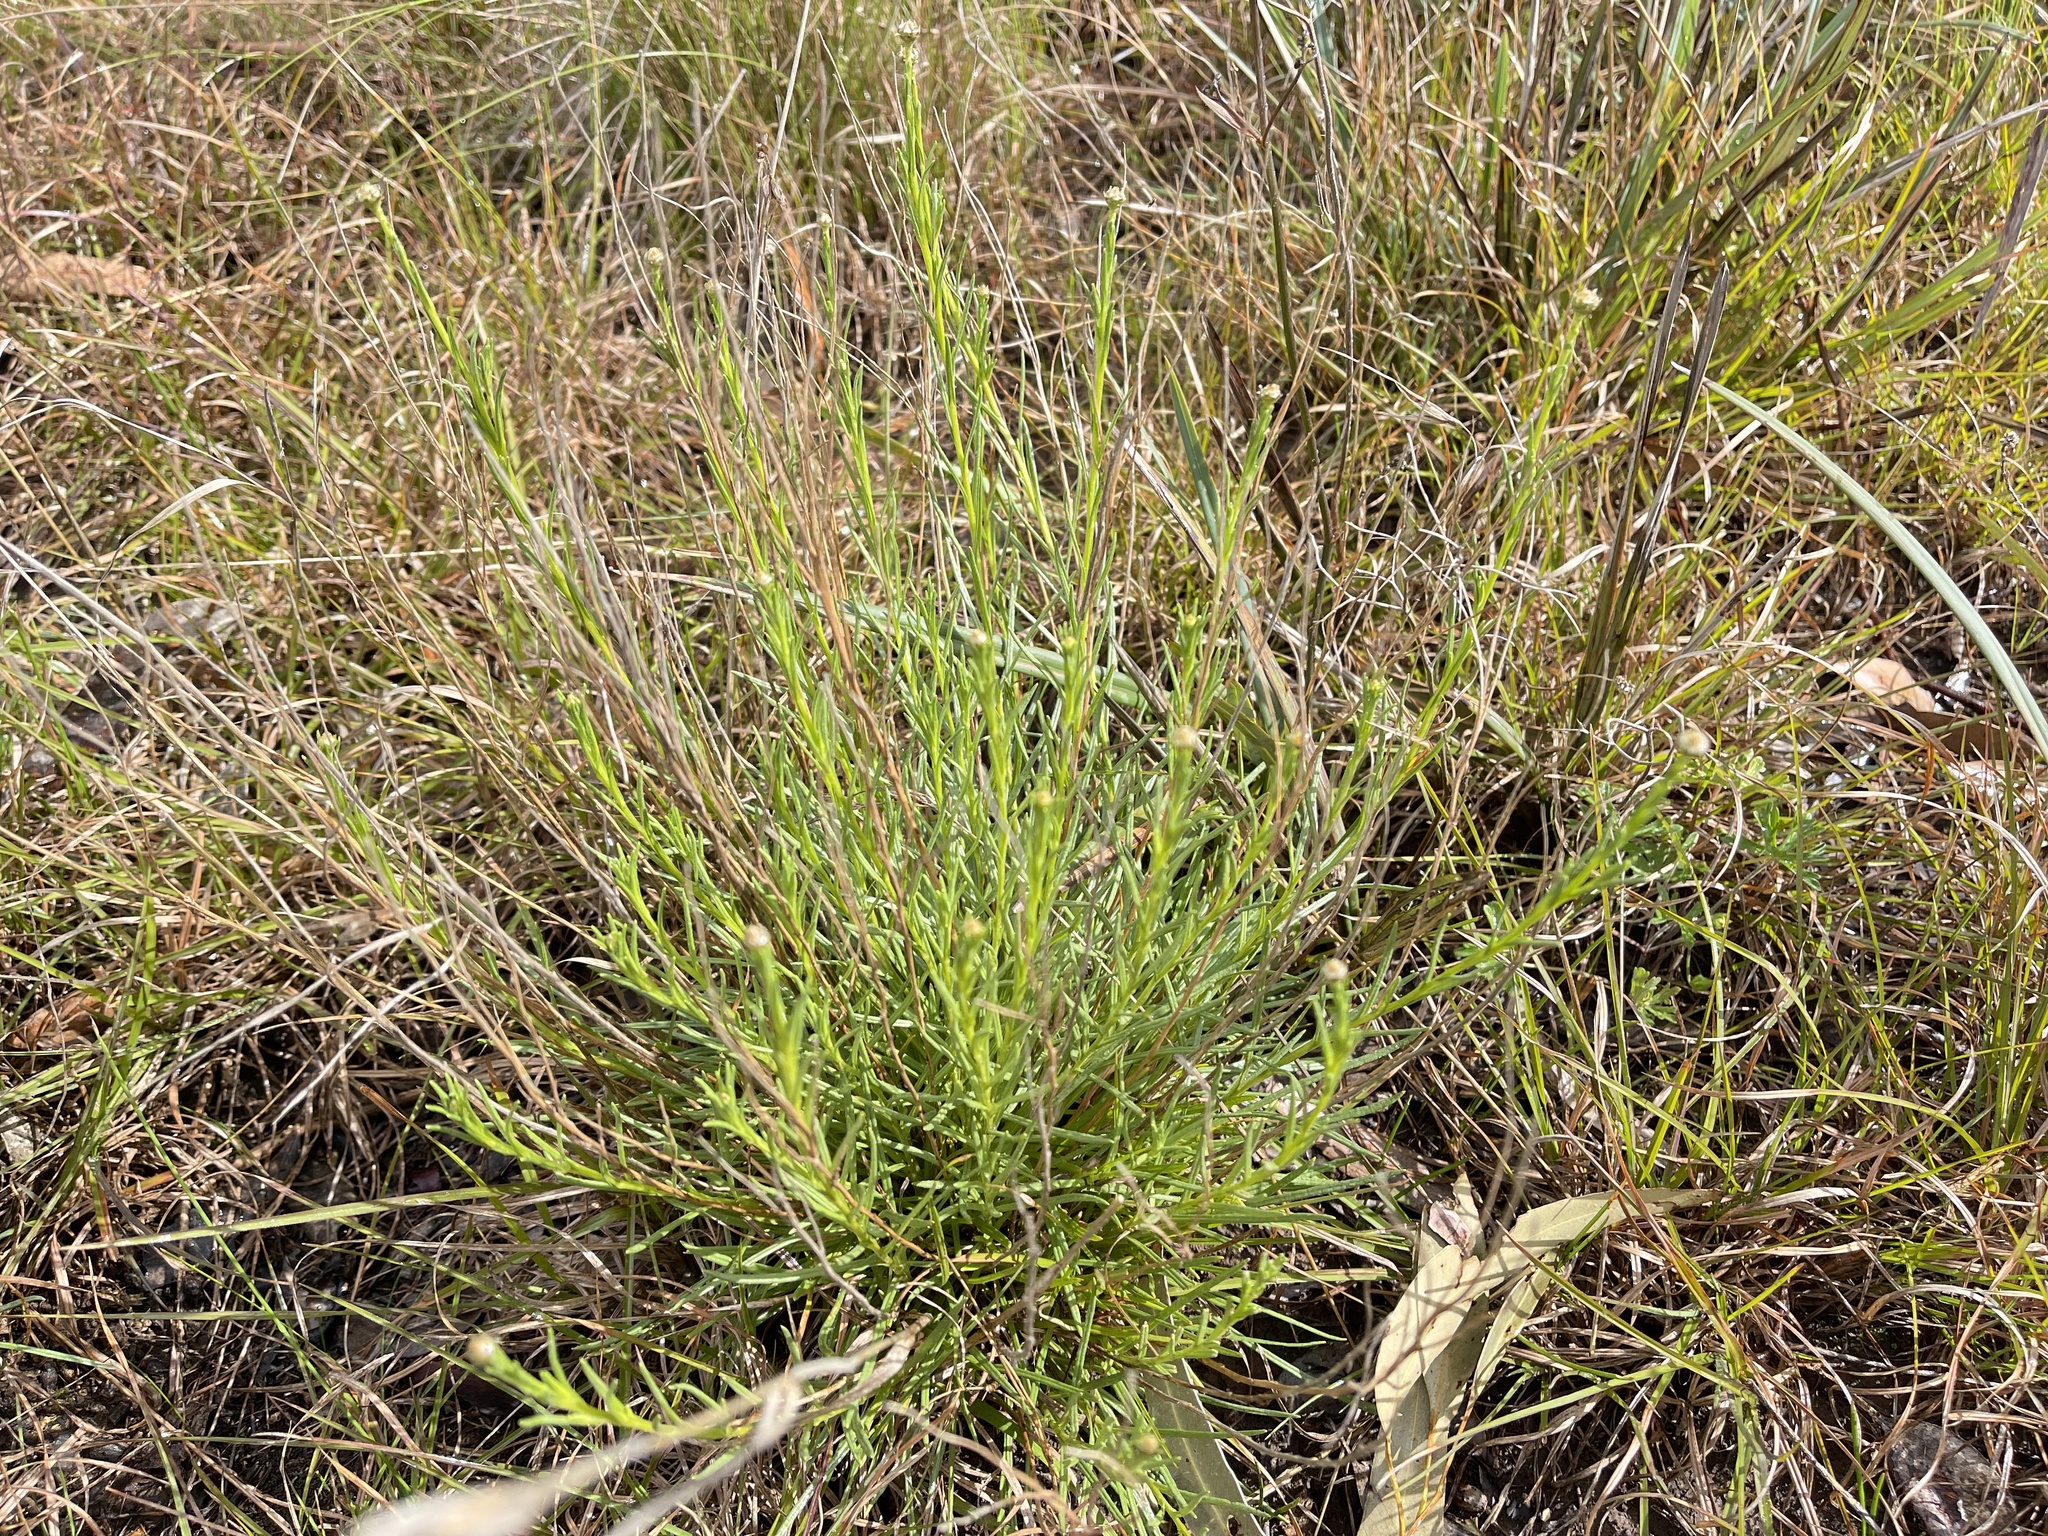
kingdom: Plantae
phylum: Tracheophyta
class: Magnoliopsida
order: Asterales
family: Asteraceae
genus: Rutidosis
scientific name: Rutidosis leptorrhynchoides
